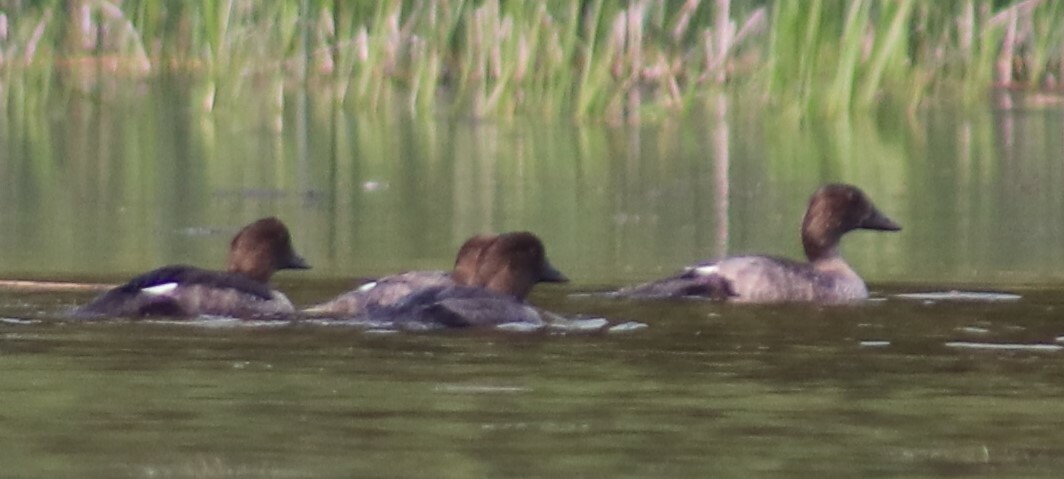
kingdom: Animalia
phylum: Chordata
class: Aves
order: Anseriformes
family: Anatidae
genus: Bucephala
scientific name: Bucephala clangula
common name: Common goldeneye
